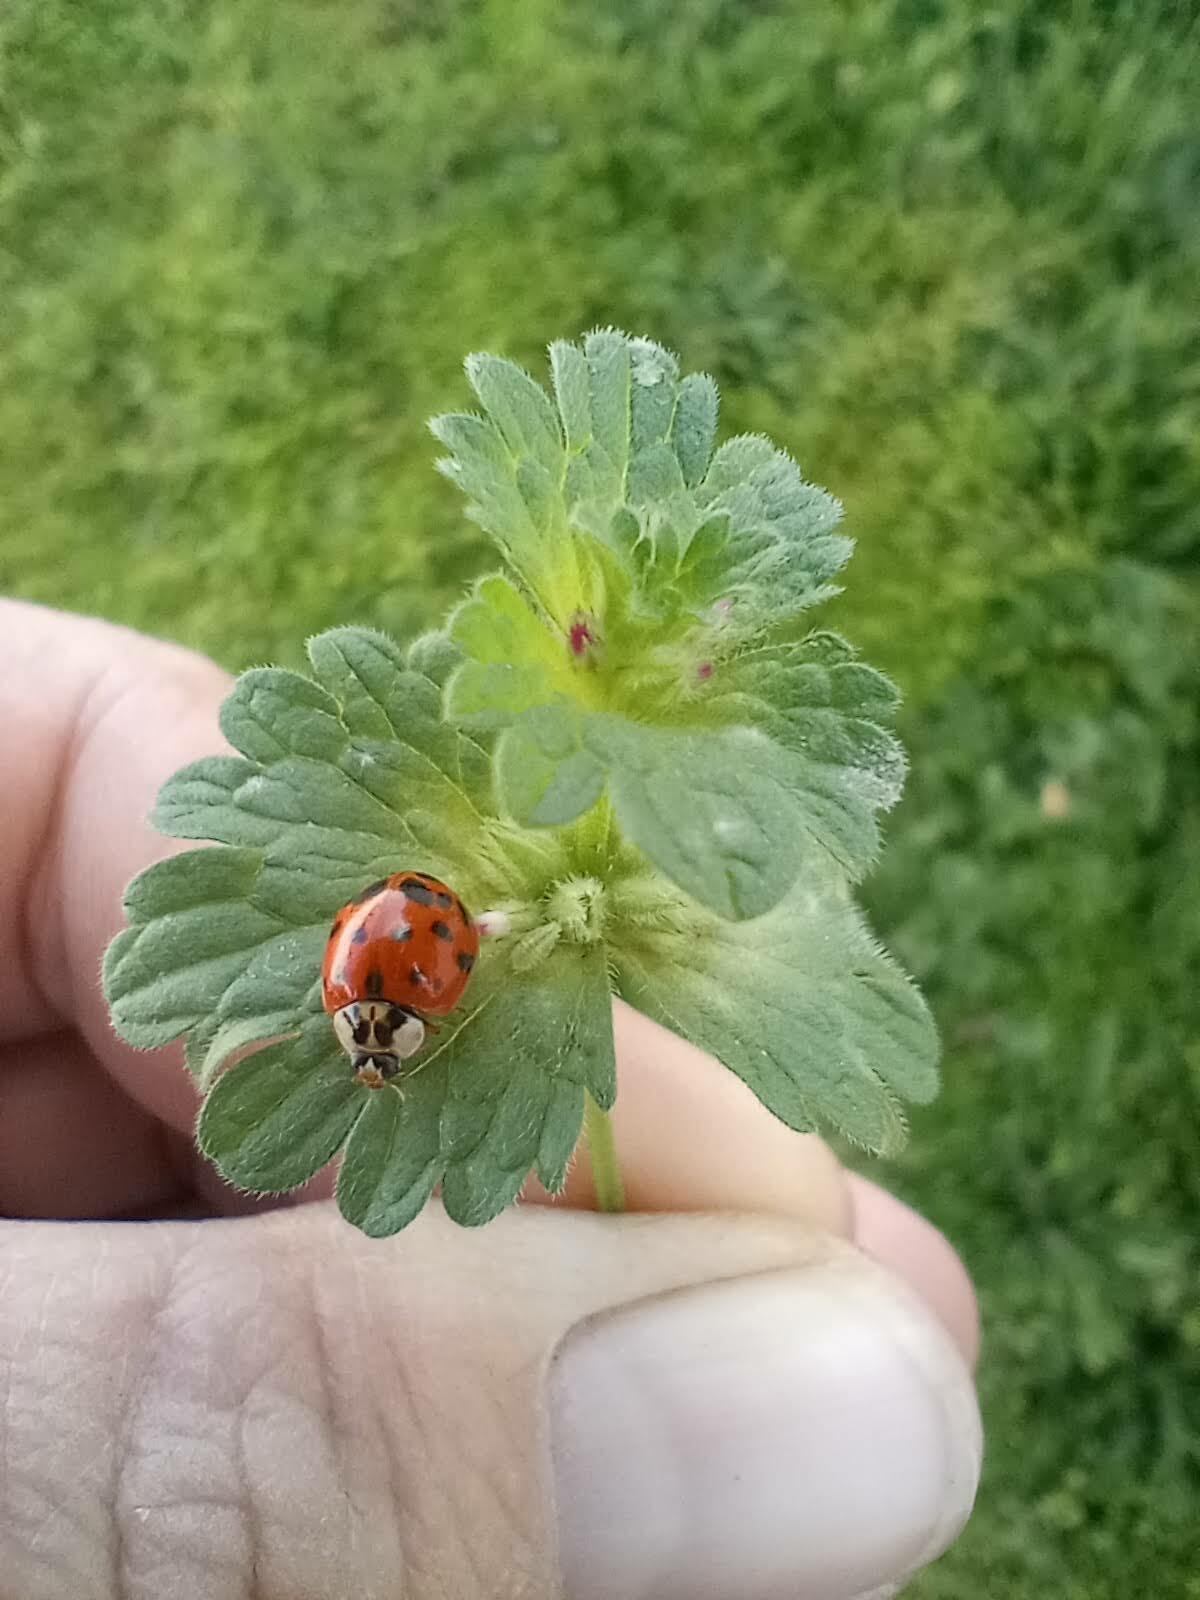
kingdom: Plantae
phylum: Tracheophyta
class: Magnoliopsida
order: Lamiales
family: Lamiaceae
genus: Lamium
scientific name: Lamium amplexicaule
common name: Henbit dead-nettle
